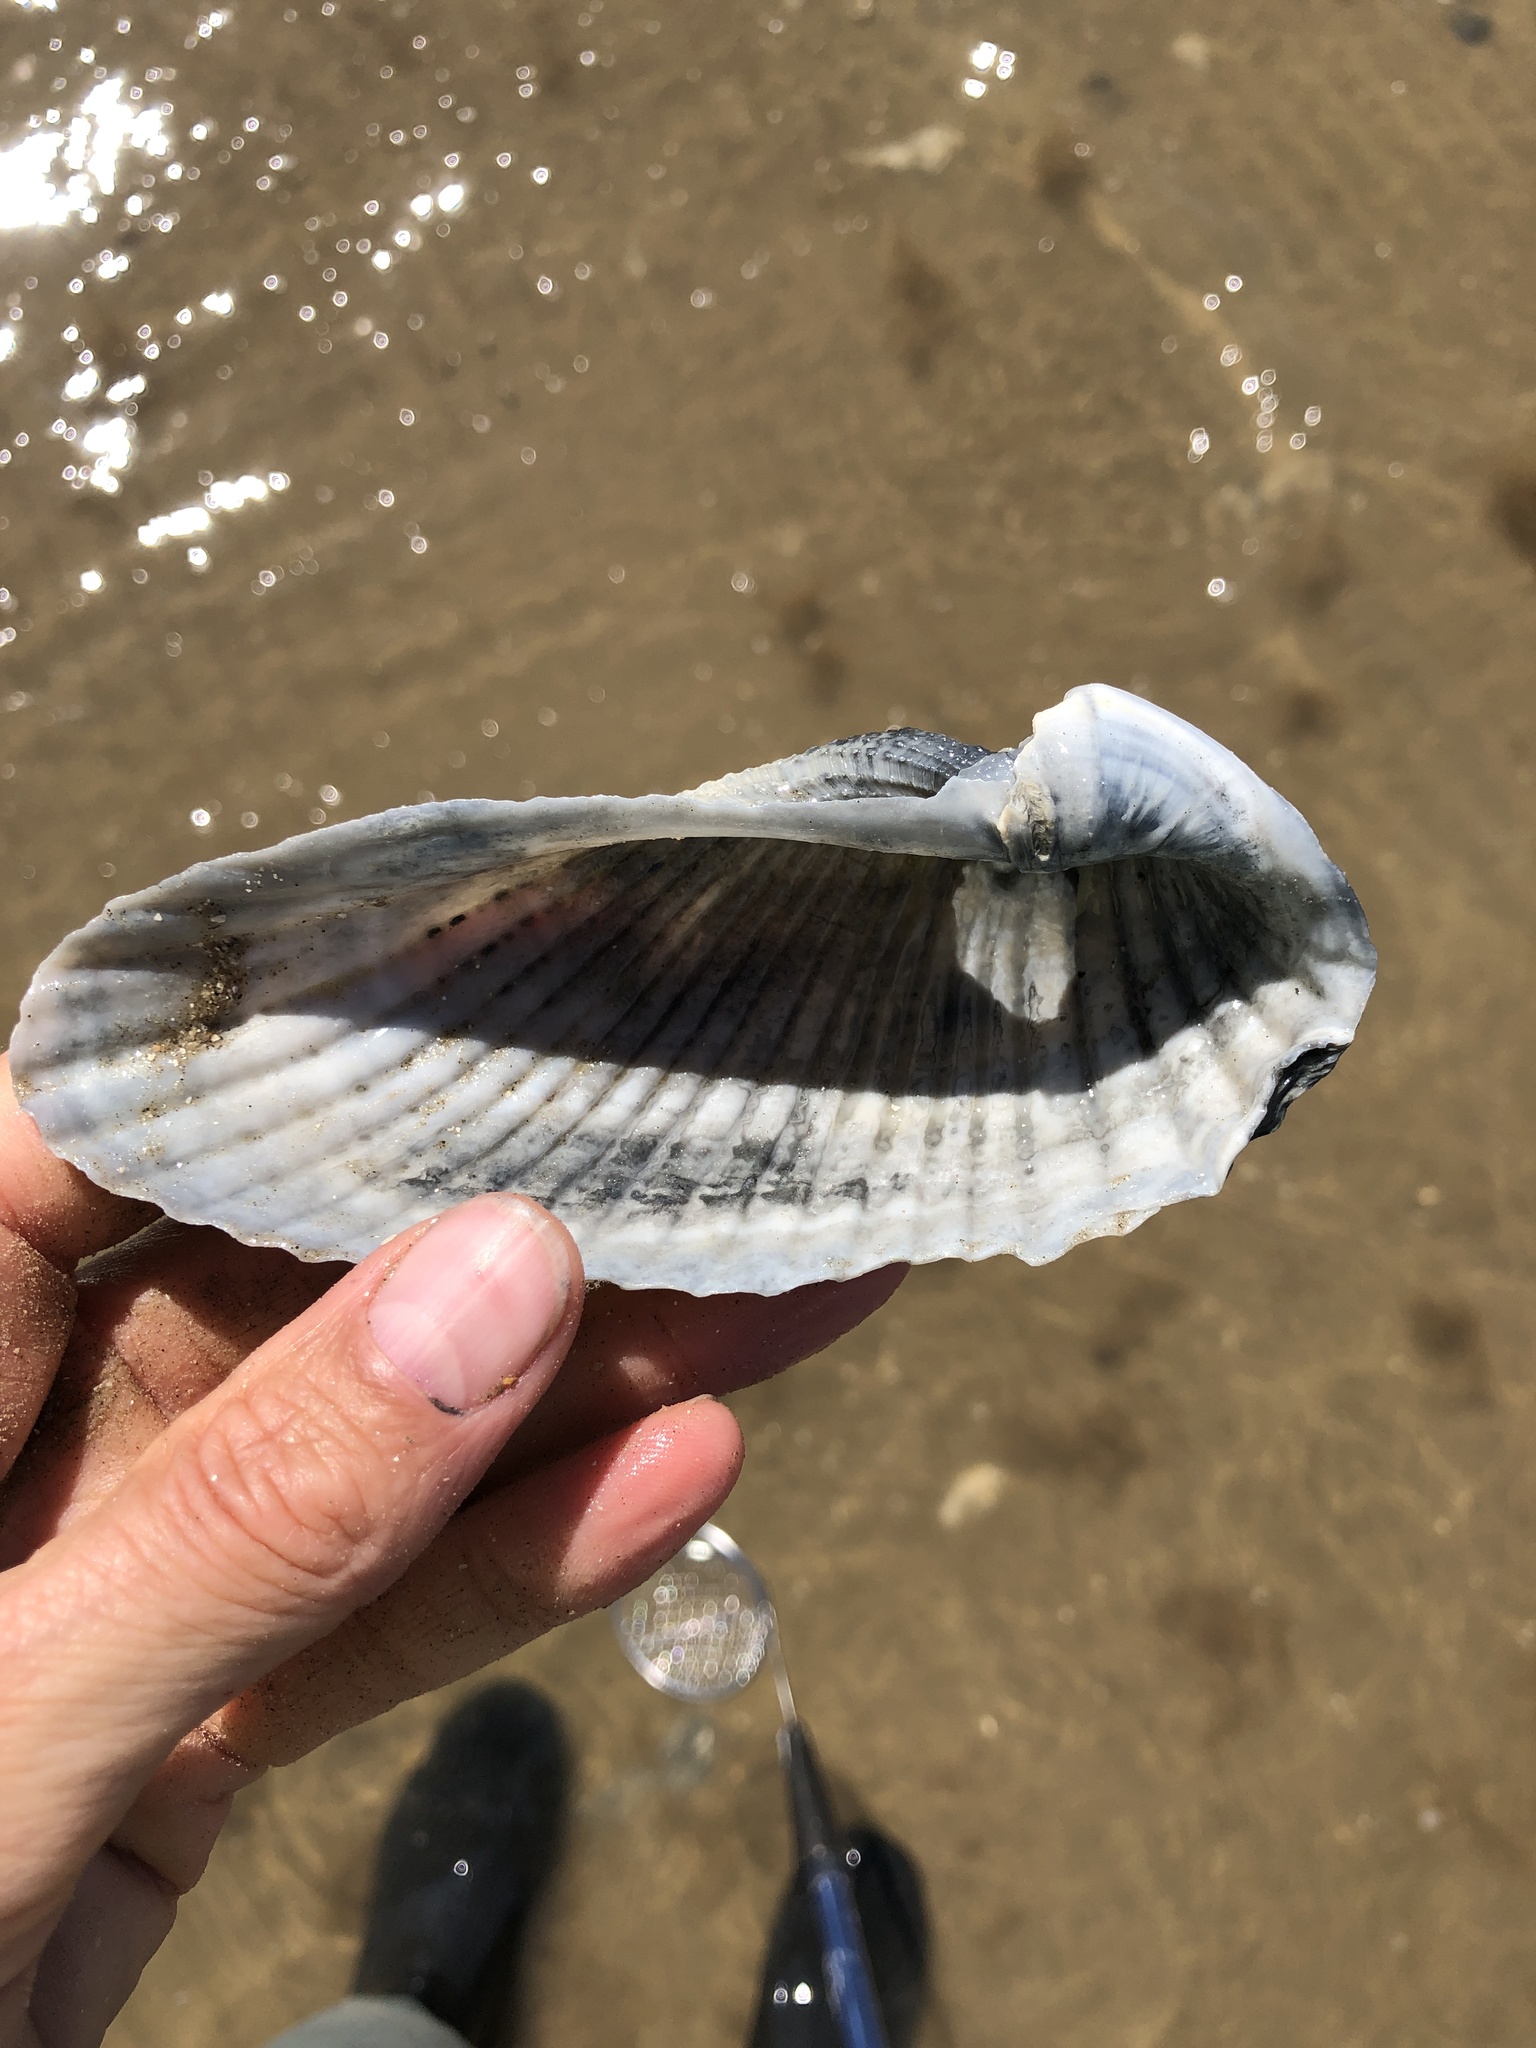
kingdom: Animalia
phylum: Mollusca
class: Bivalvia
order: Myida
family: Pholadidae
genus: Cyrtopleura
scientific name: Cyrtopleura costata
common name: Angel wing
